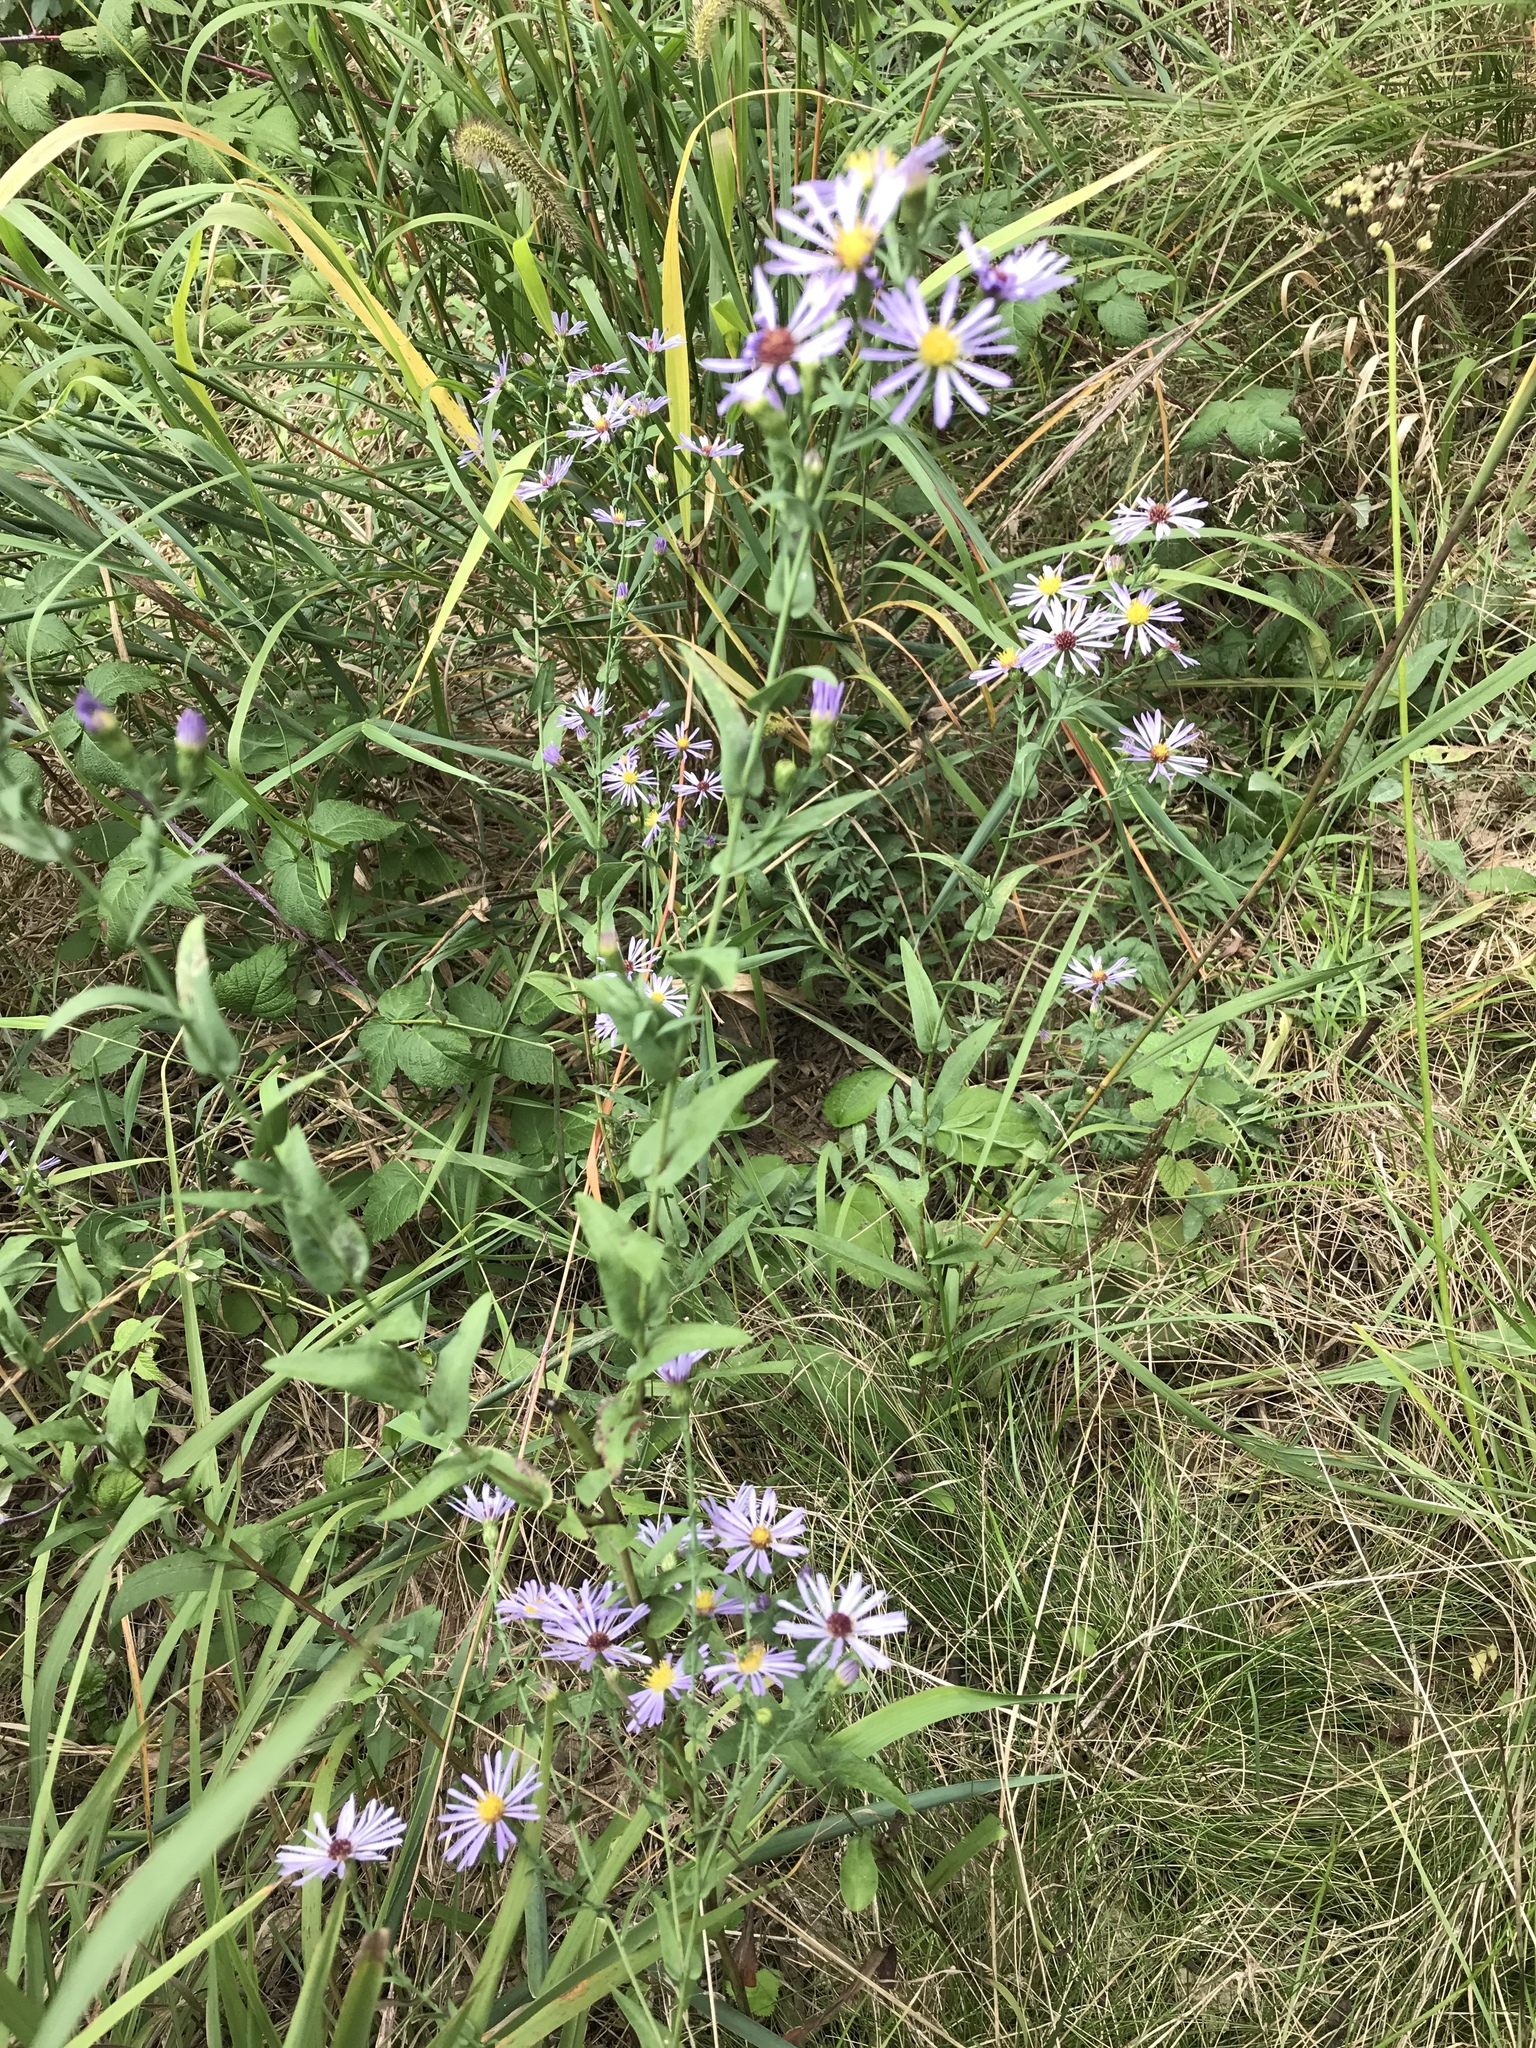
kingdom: Plantae
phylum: Tracheophyta
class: Magnoliopsida
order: Asterales
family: Asteraceae
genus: Symphyotrichum
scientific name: Symphyotrichum laeve
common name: Glaucous aster
